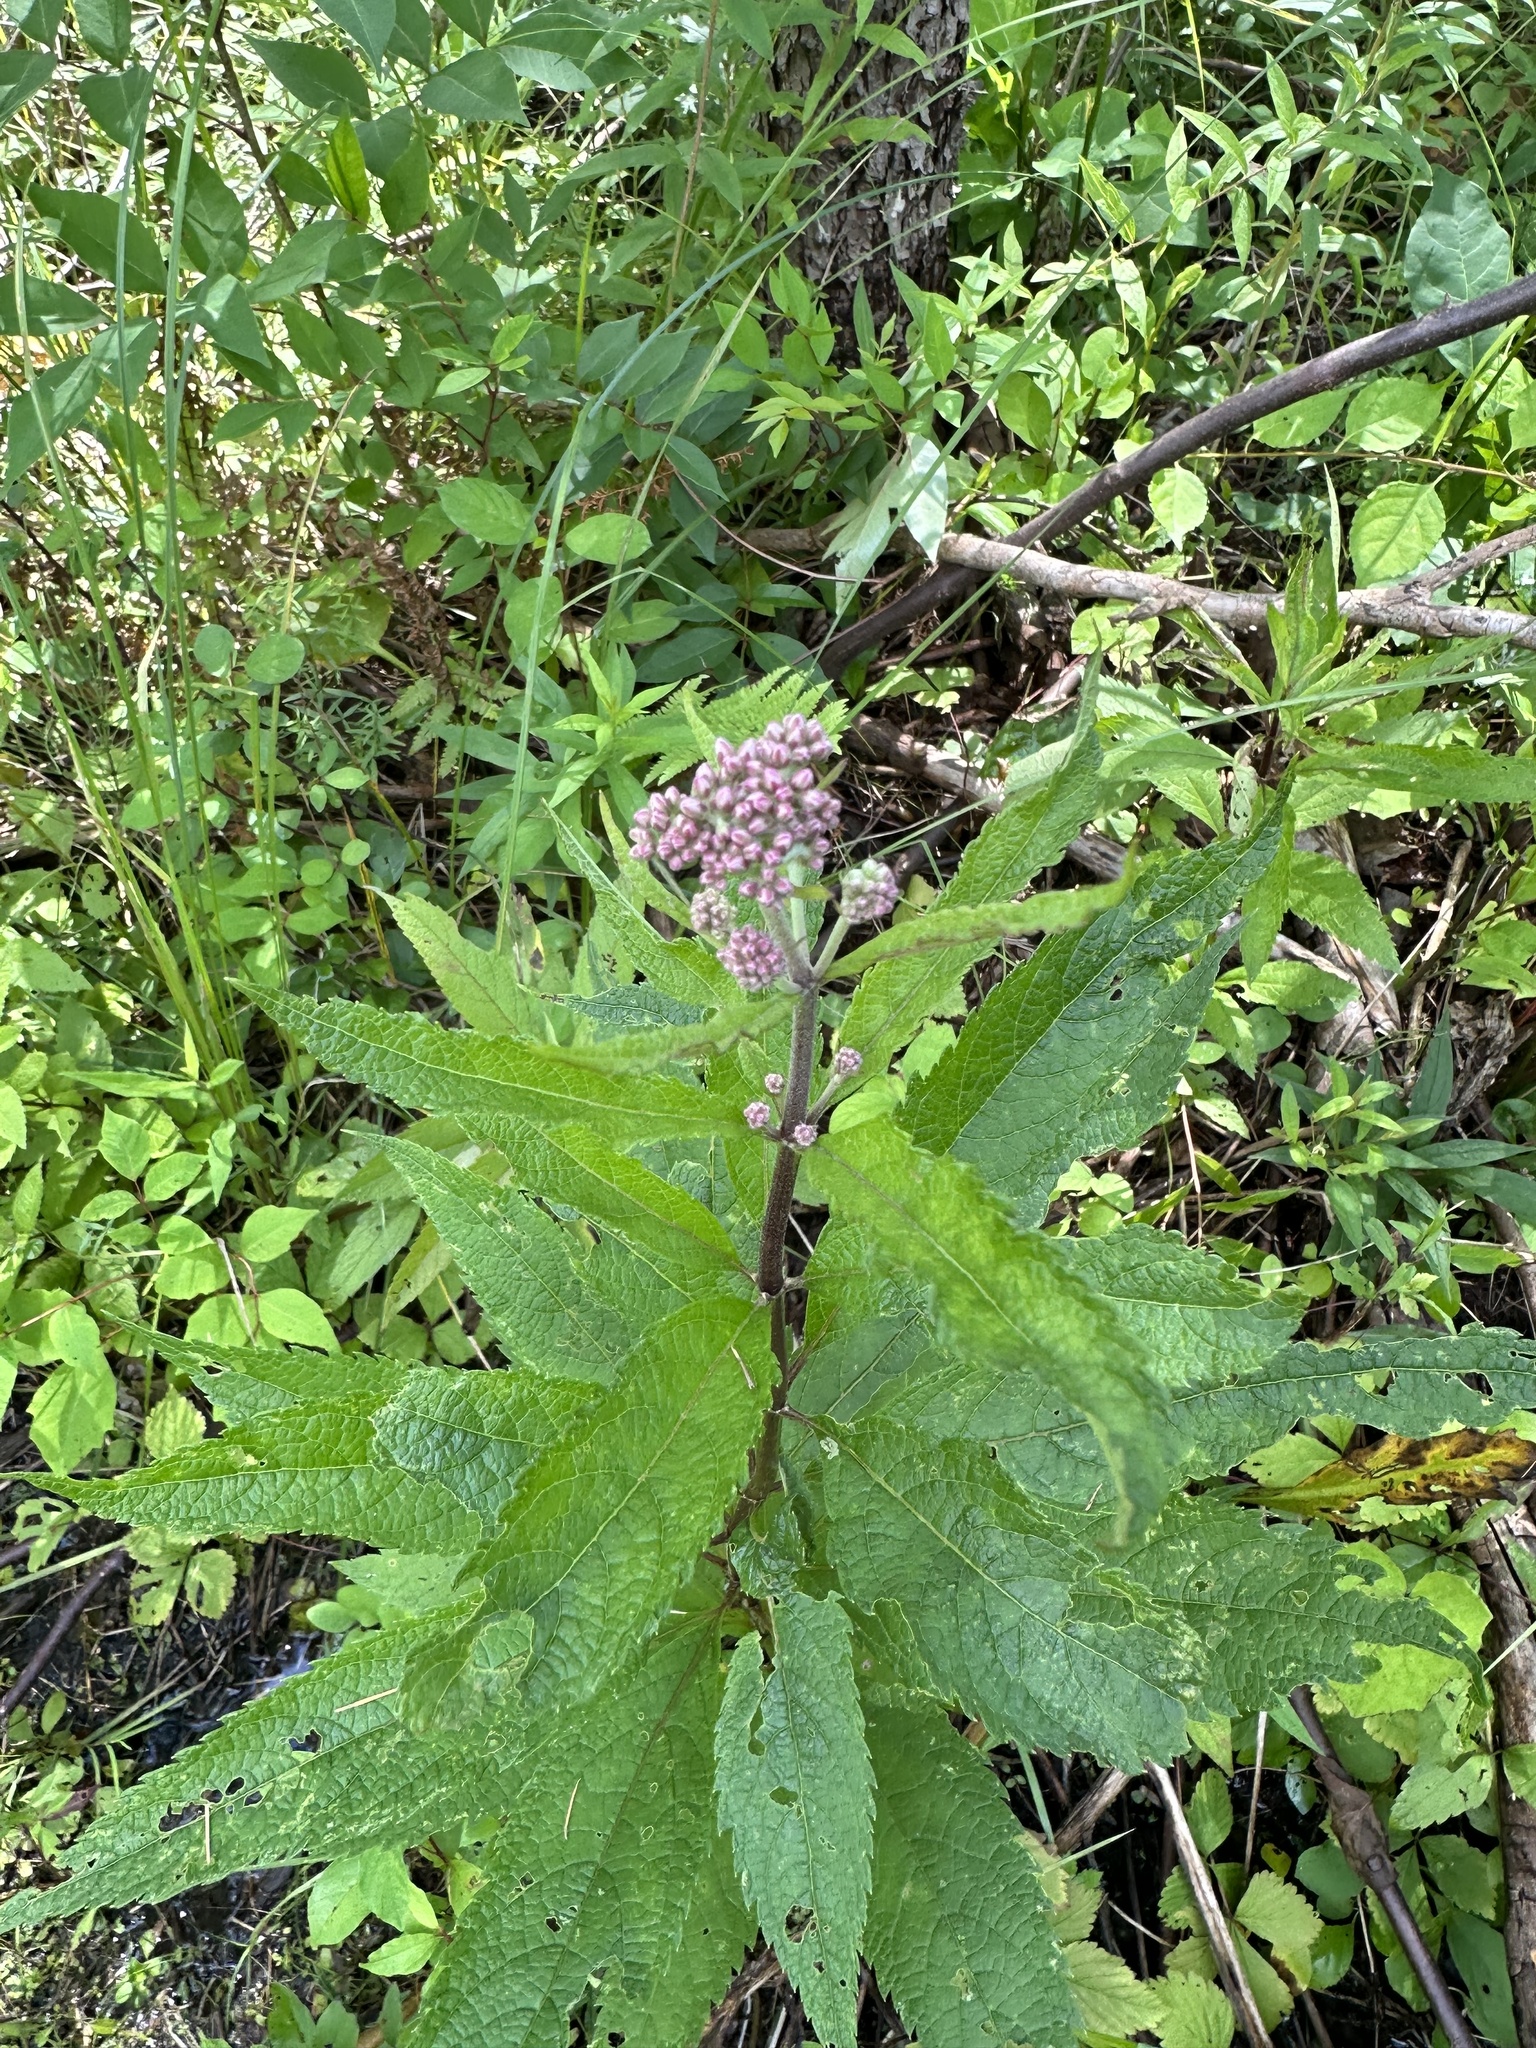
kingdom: Plantae
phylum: Tracheophyta
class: Magnoliopsida
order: Asterales
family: Asteraceae
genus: Eutrochium
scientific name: Eutrochium maculatum
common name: Spotted joe pye weed
